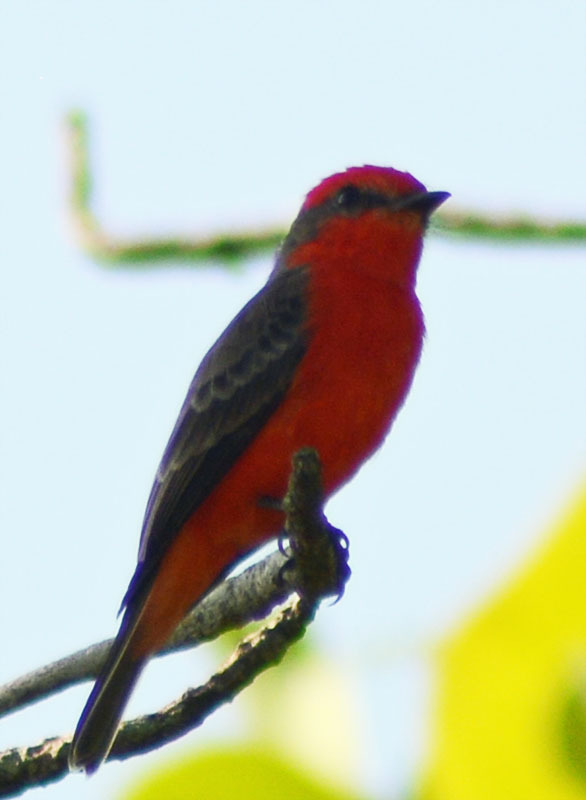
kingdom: Animalia
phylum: Chordata
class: Aves
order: Passeriformes
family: Tyrannidae
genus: Pyrocephalus
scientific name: Pyrocephalus rubinus
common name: Vermilion flycatcher
